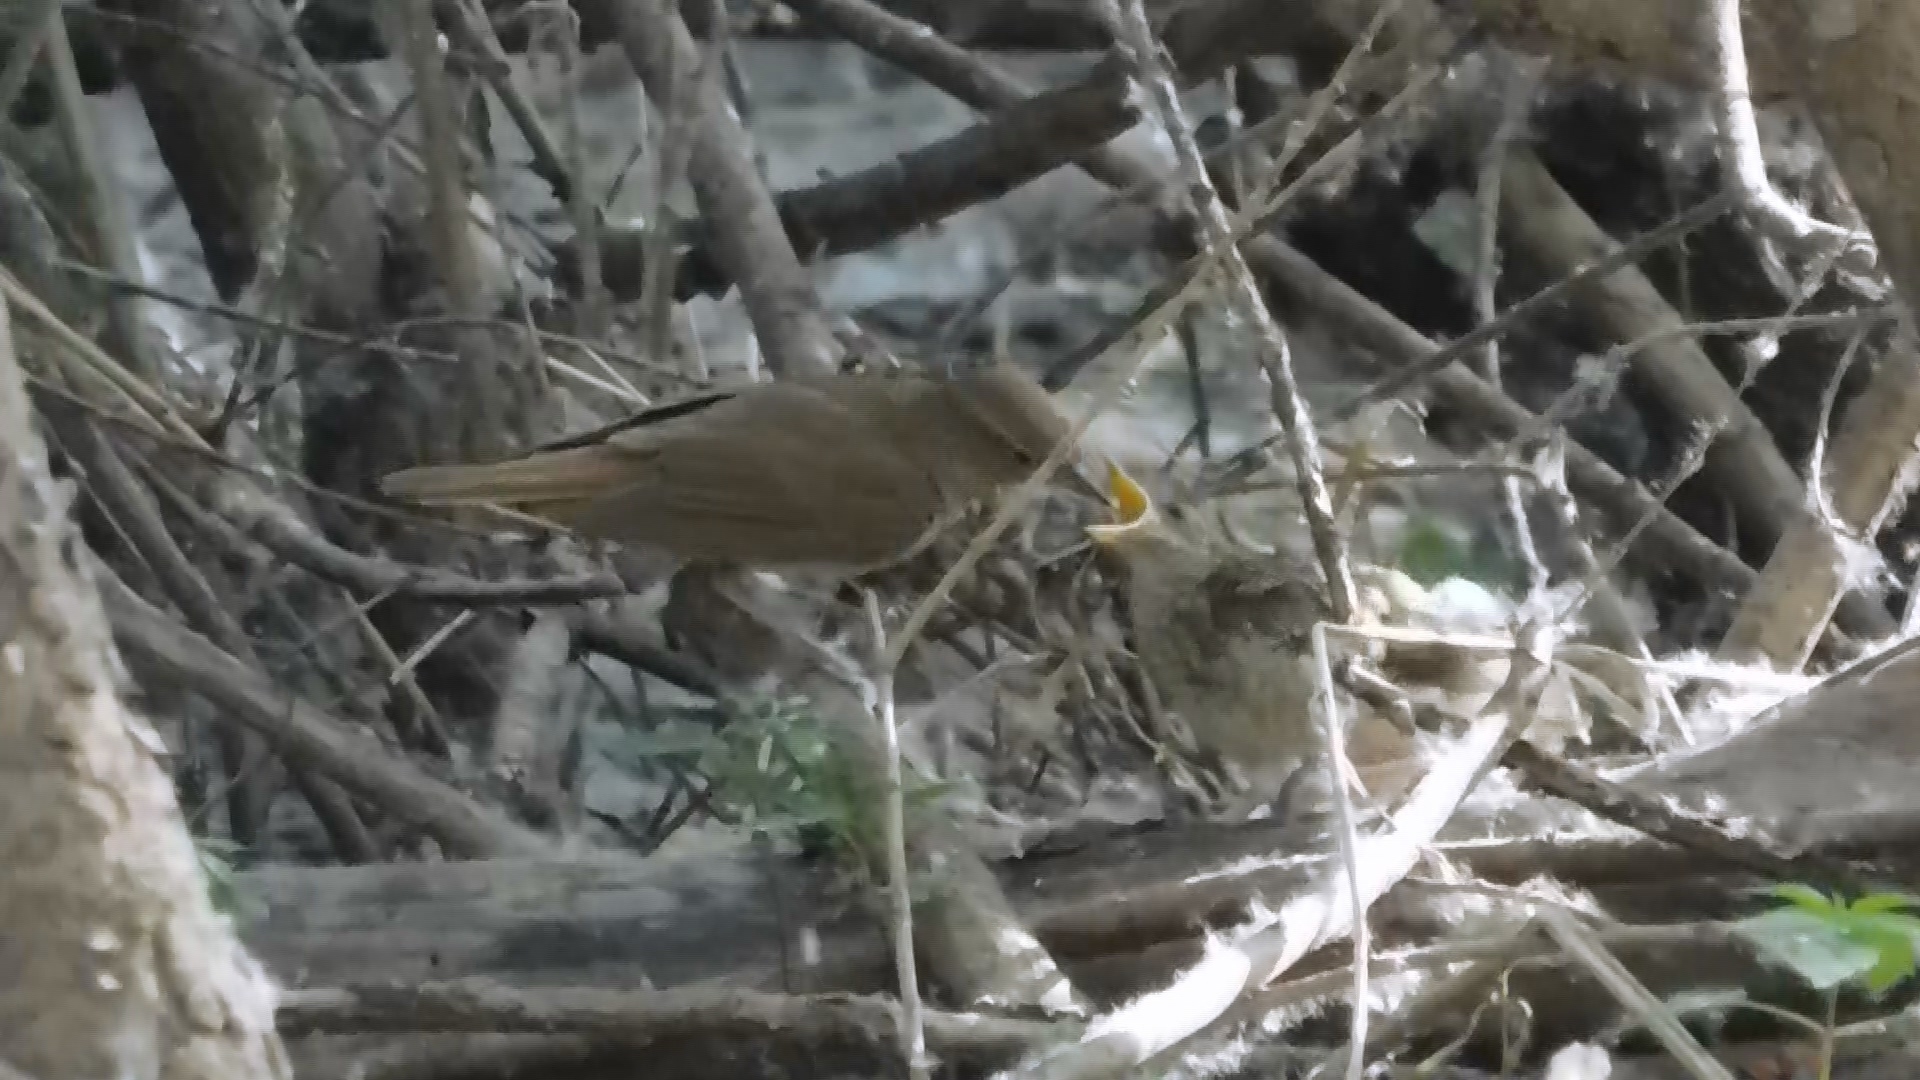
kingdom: Animalia
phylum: Chordata
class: Aves
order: Passeriformes
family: Muscicapidae
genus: Luscinia
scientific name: Luscinia luscinia
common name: Thrush nightingale
